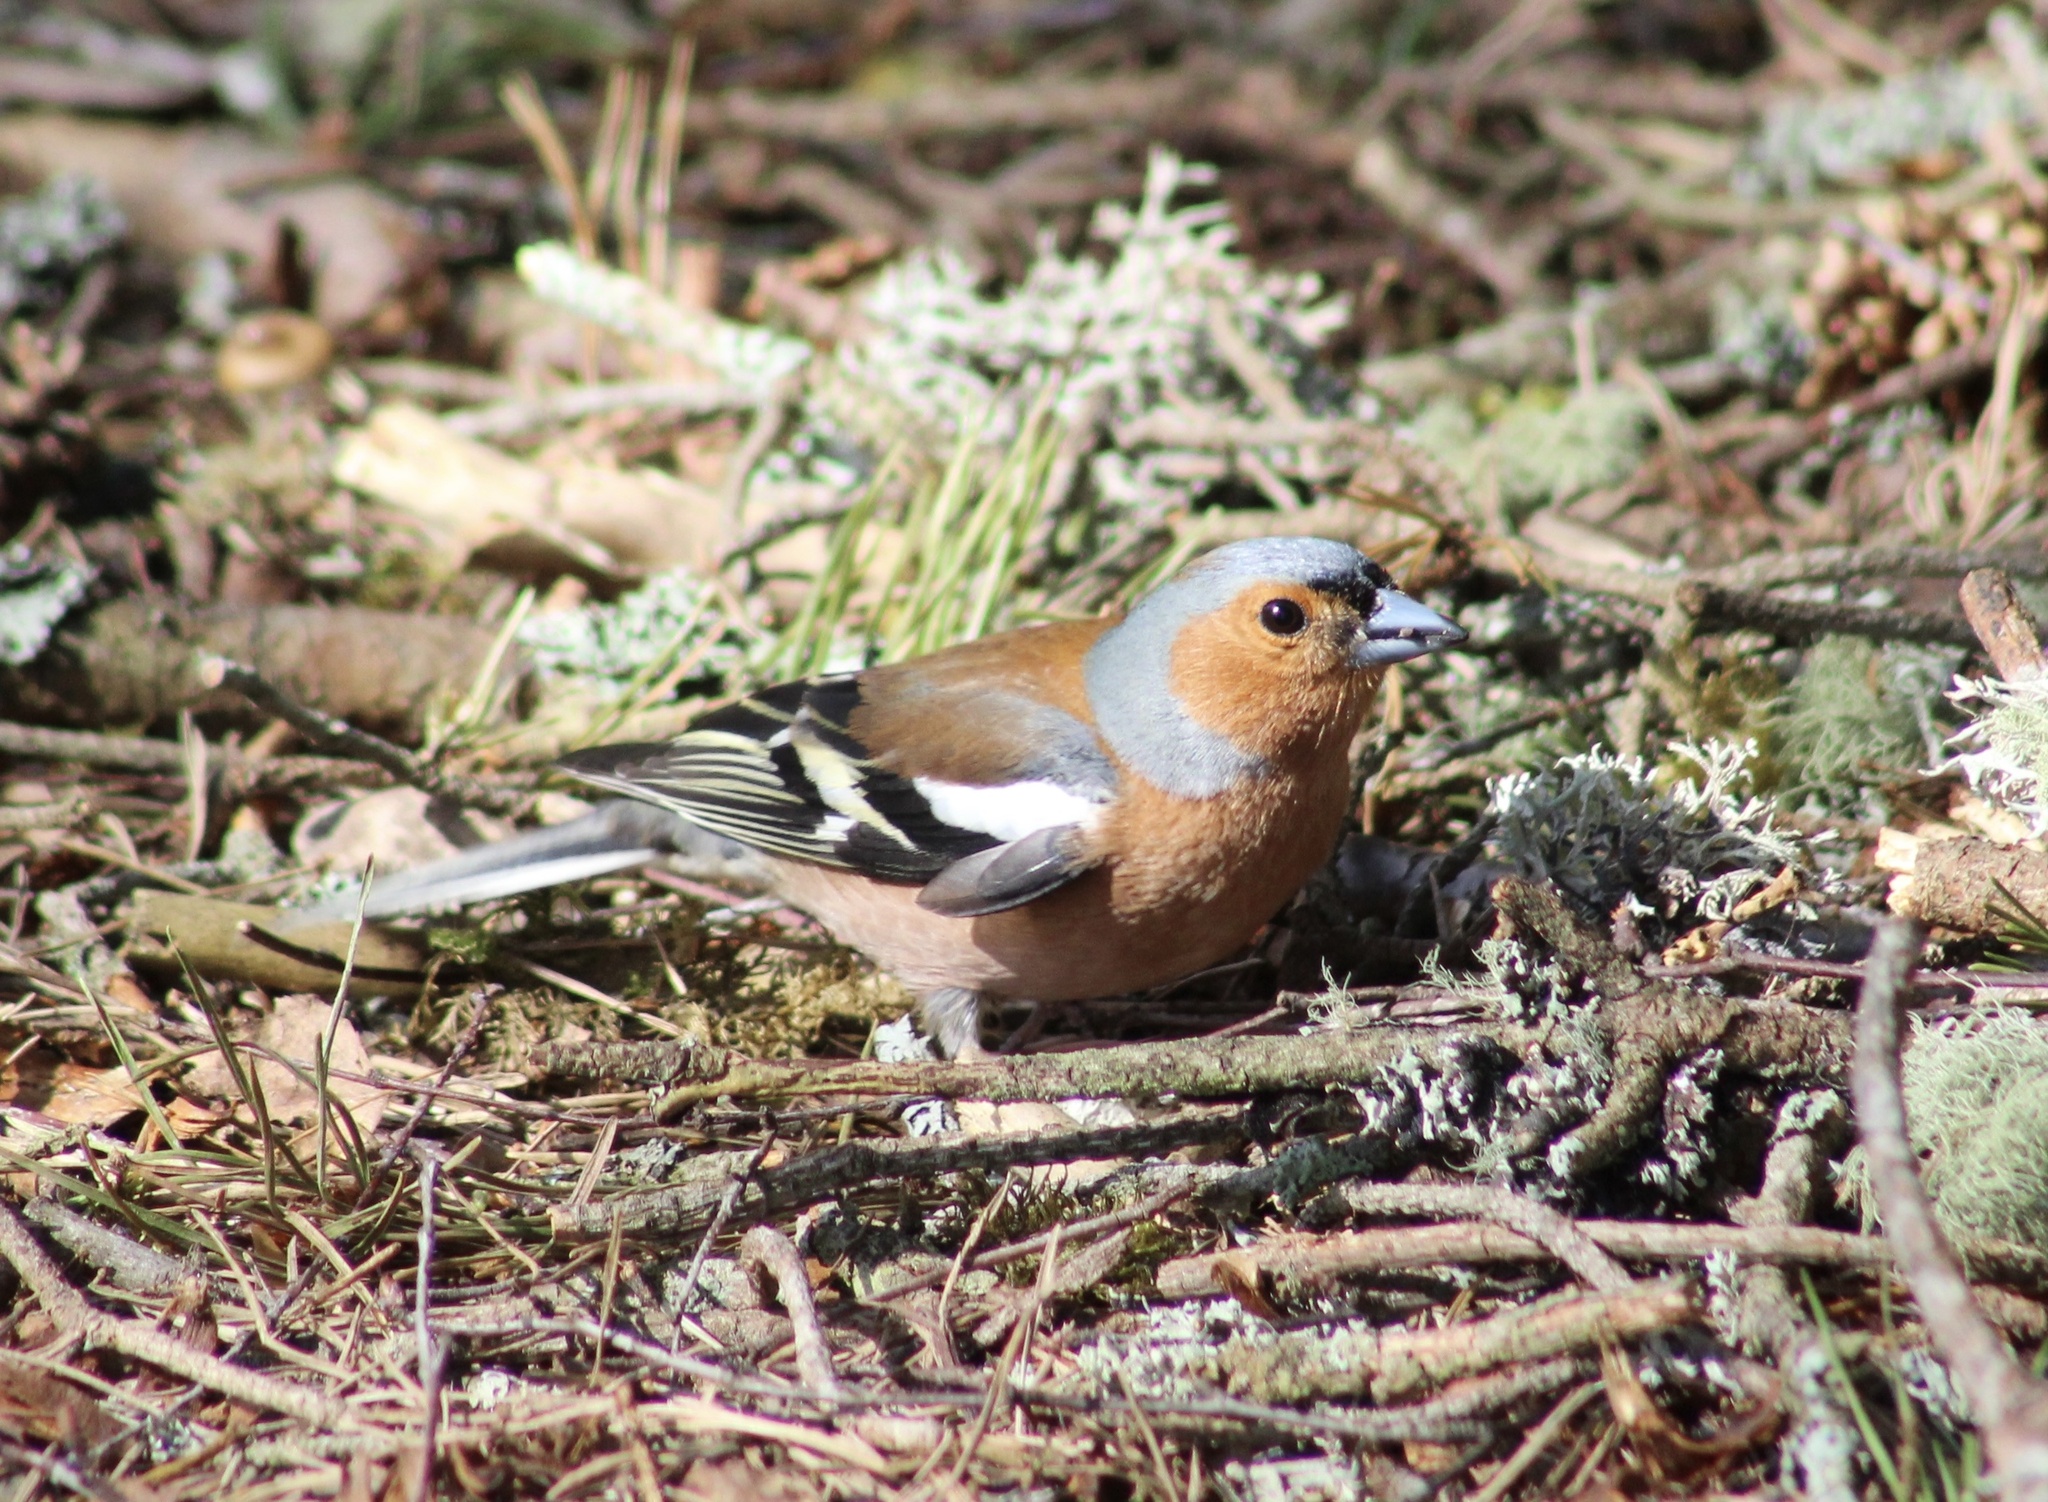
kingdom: Animalia
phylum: Chordata
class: Aves
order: Passeriformes
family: Fringillidae
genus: Fringilla
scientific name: Fringilla coelebs
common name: Common chaffinch
